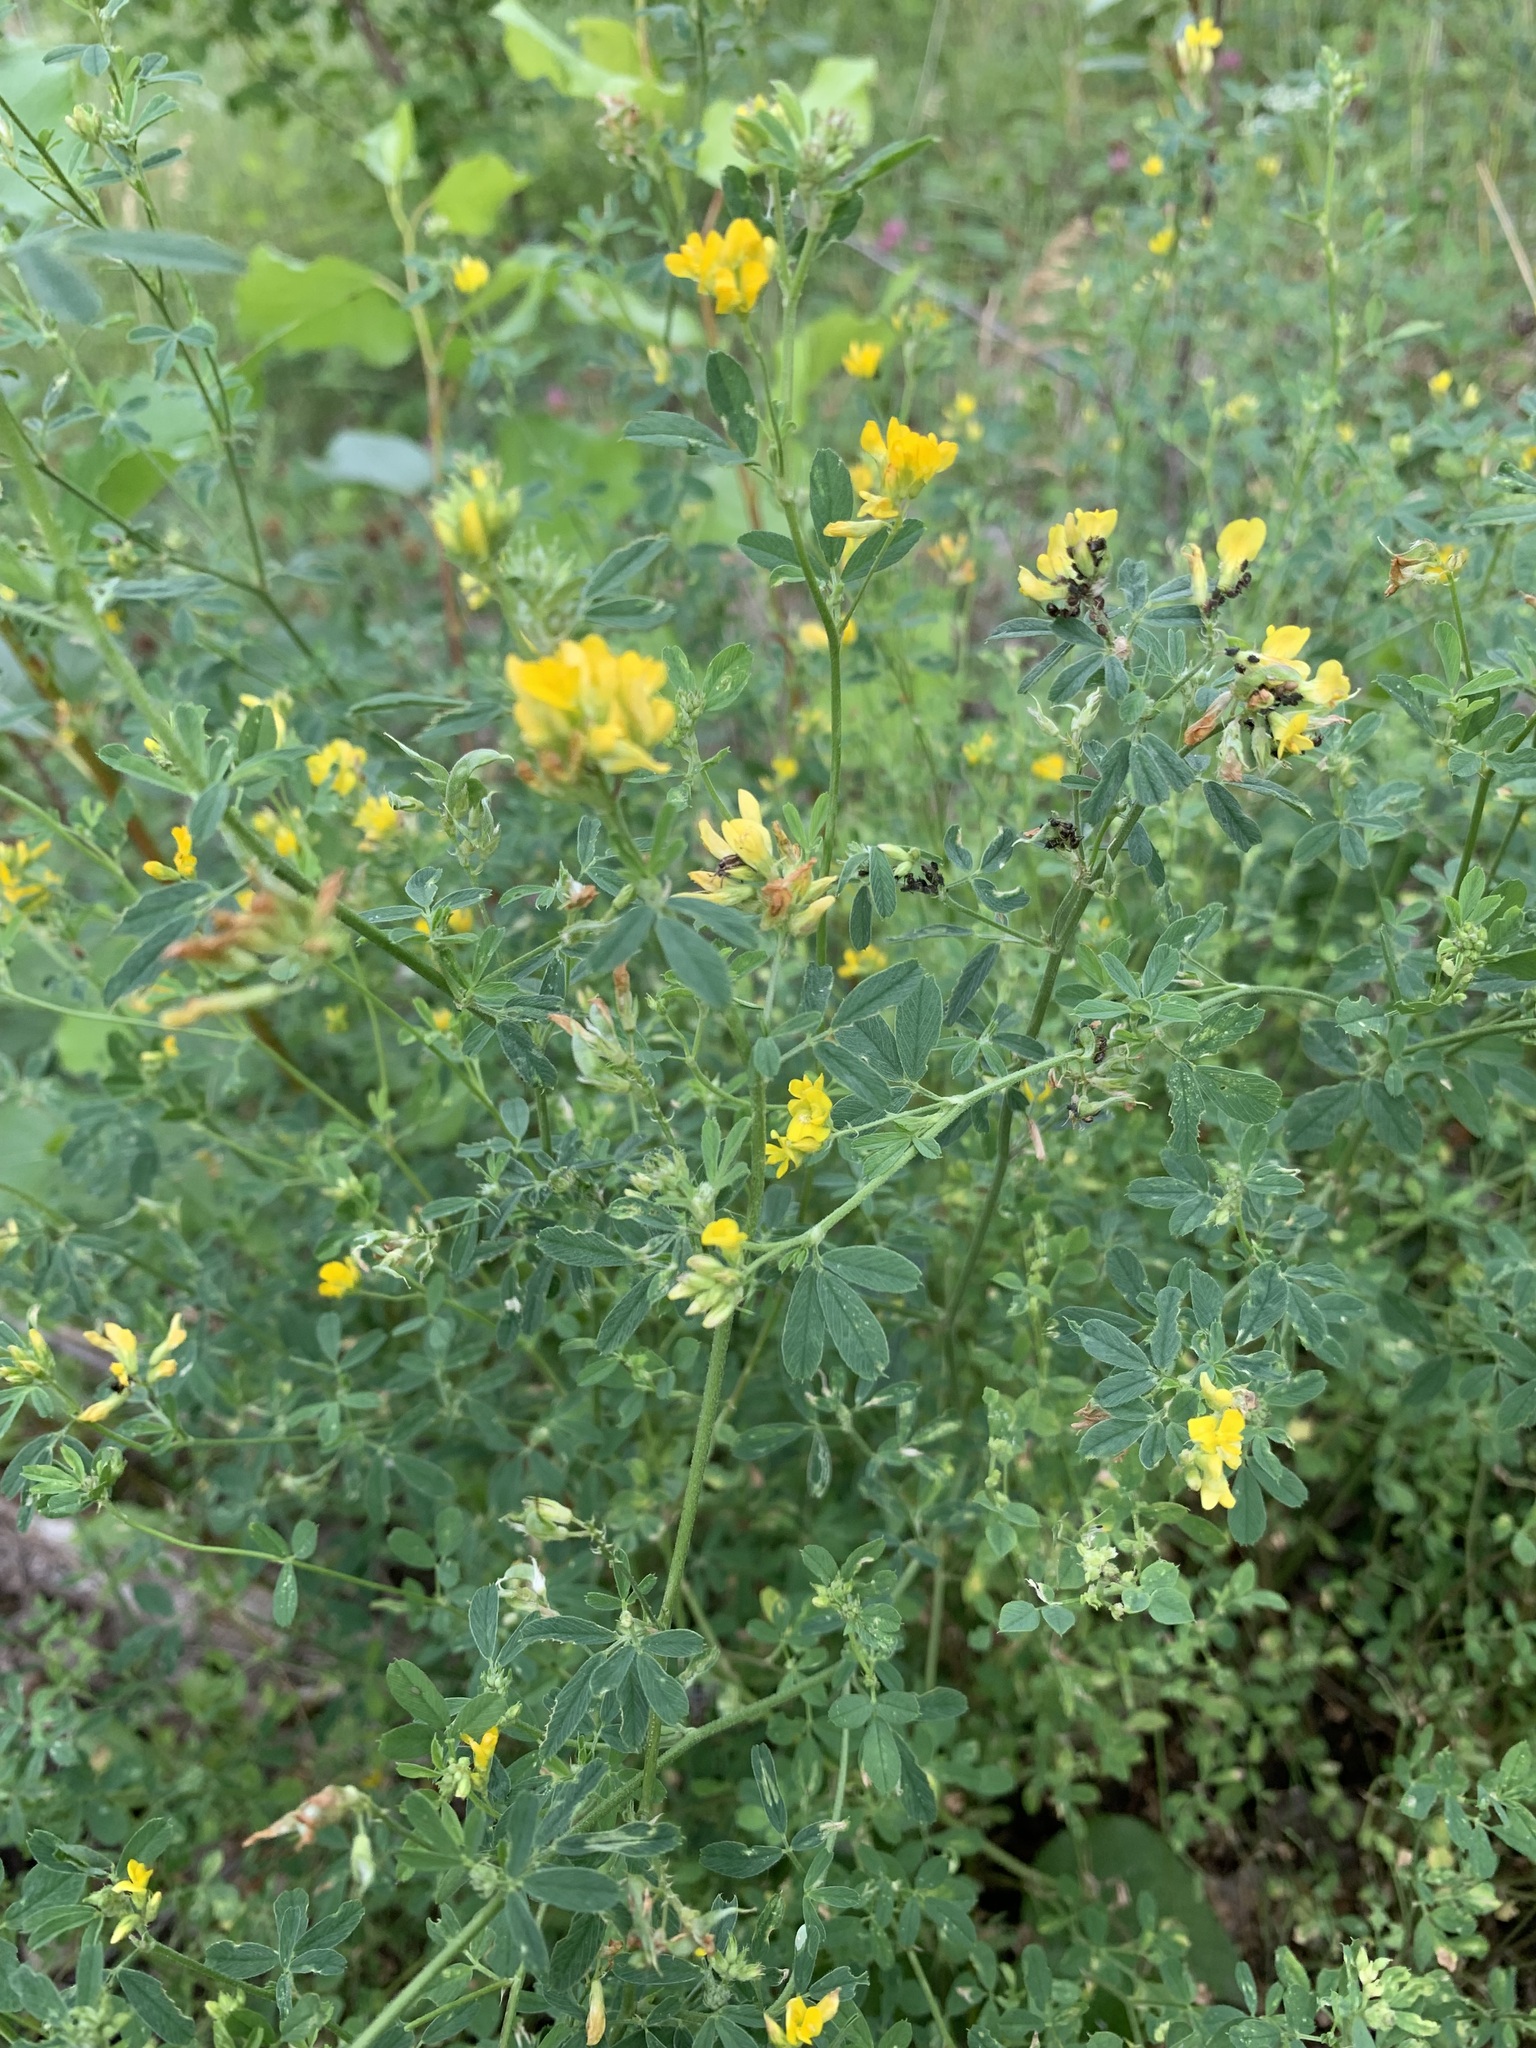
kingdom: Plantae
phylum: Tracheophyta
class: Magnoliopsida
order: Fabales
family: Fabaceae
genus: Medicago
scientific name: Medicago falcata
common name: Sickle medick
